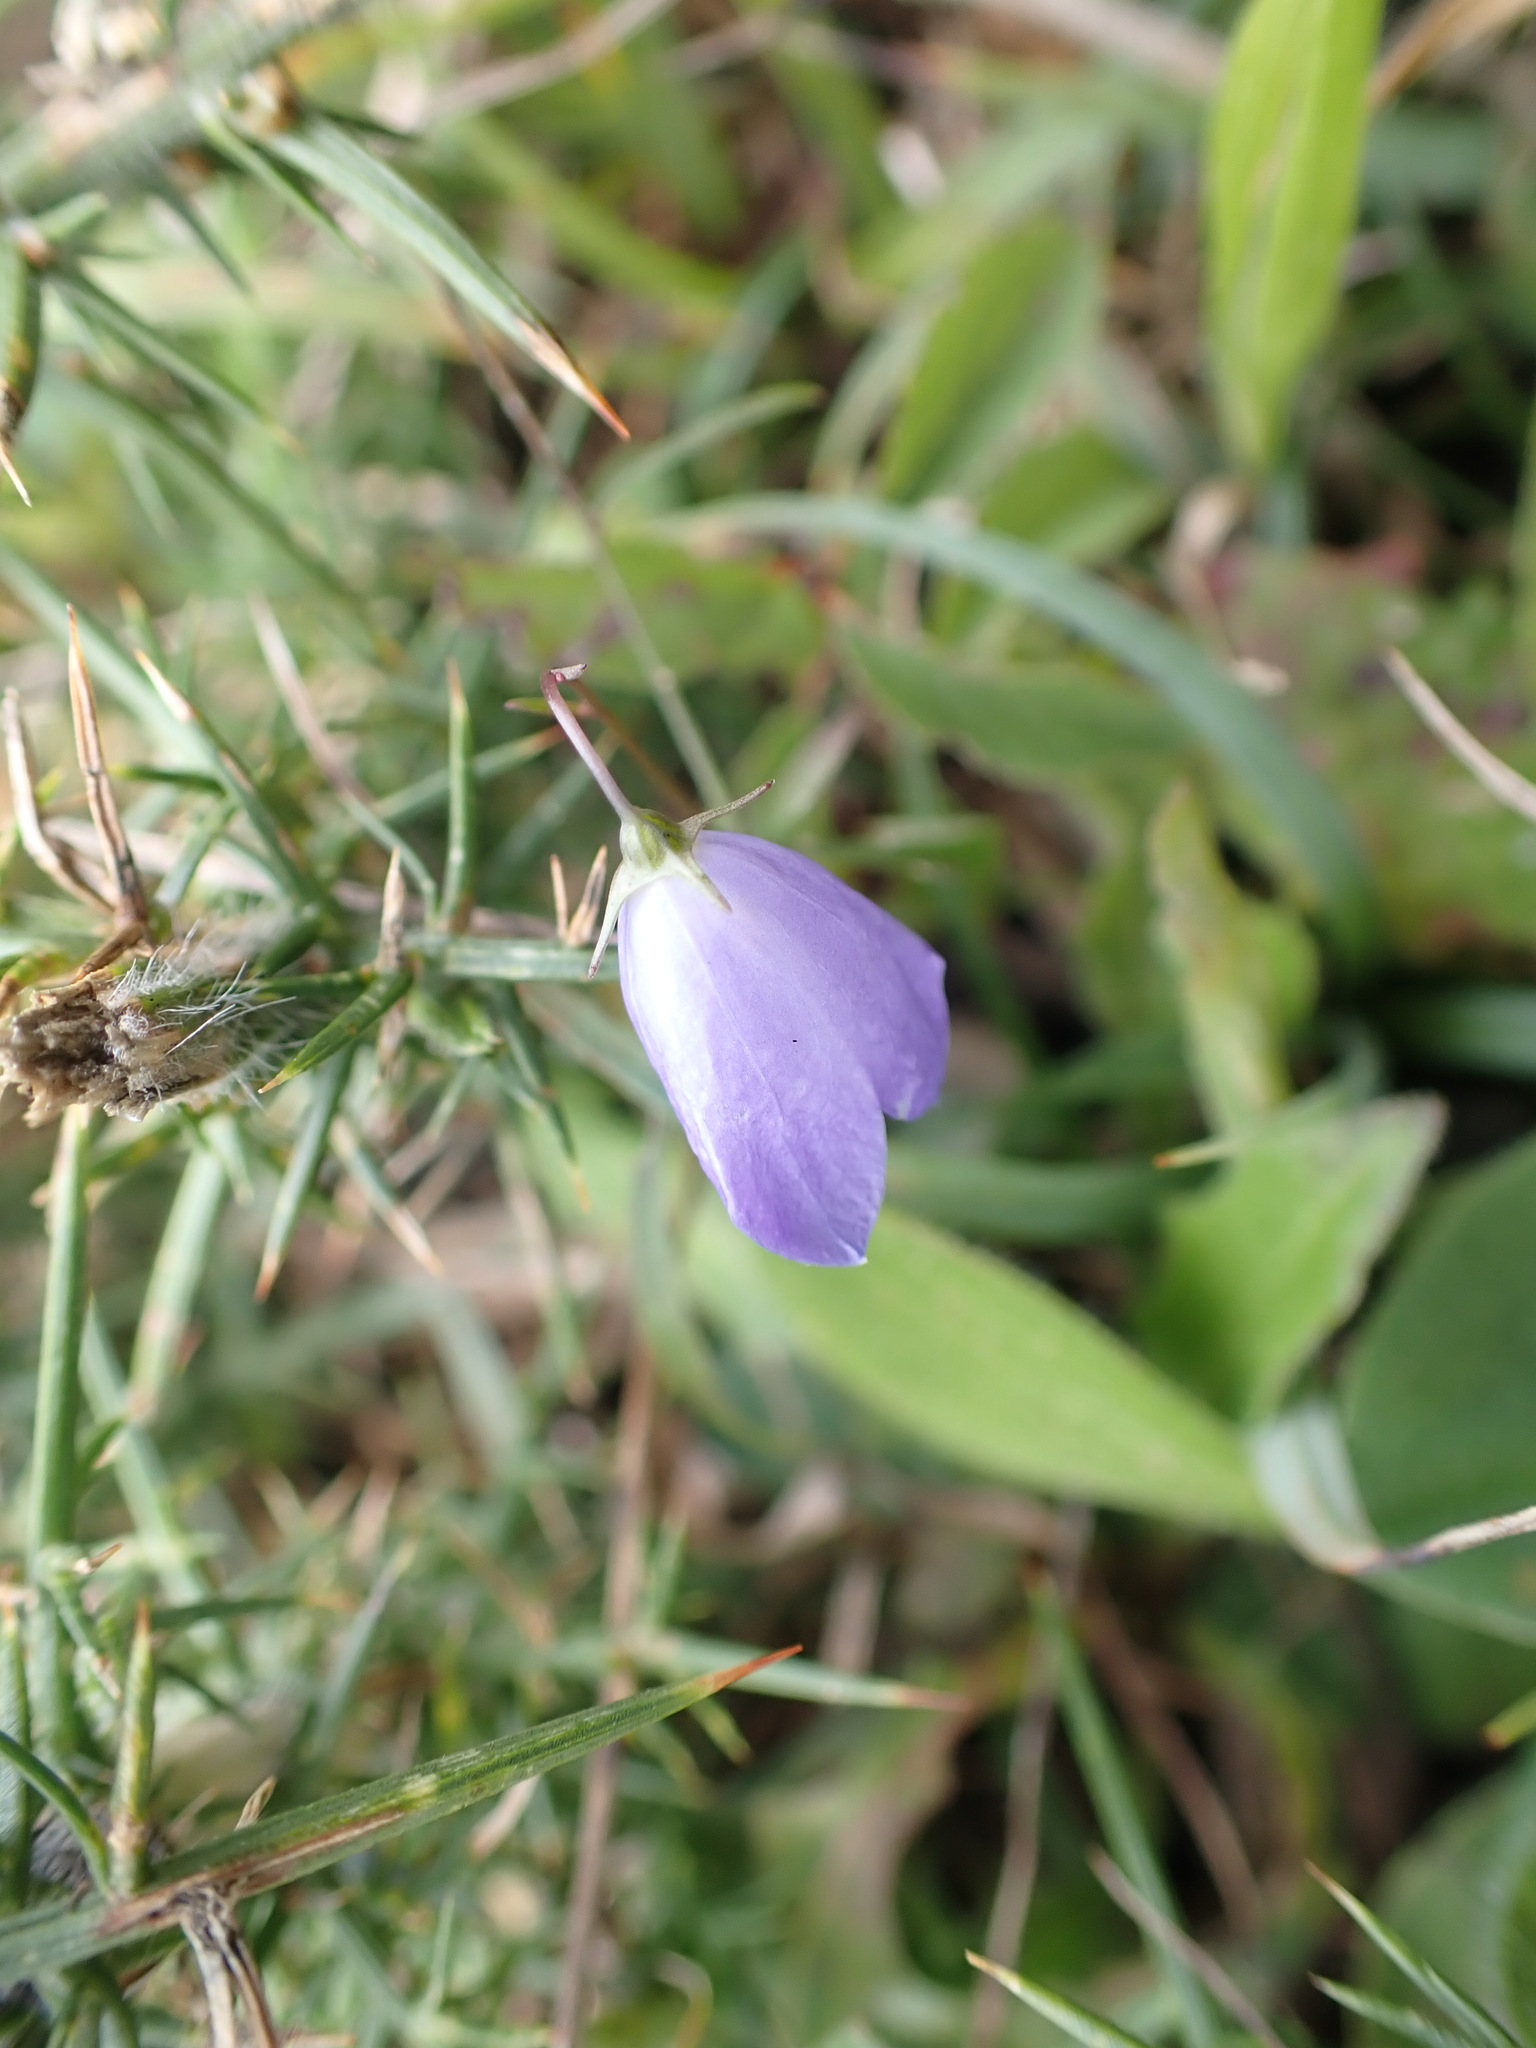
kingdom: Plantae
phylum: Tracheophyta
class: Magnoliopsida
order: Asterales
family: Campanulaceae
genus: Campanula
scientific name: Campanula rotundifolia
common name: Harebell
